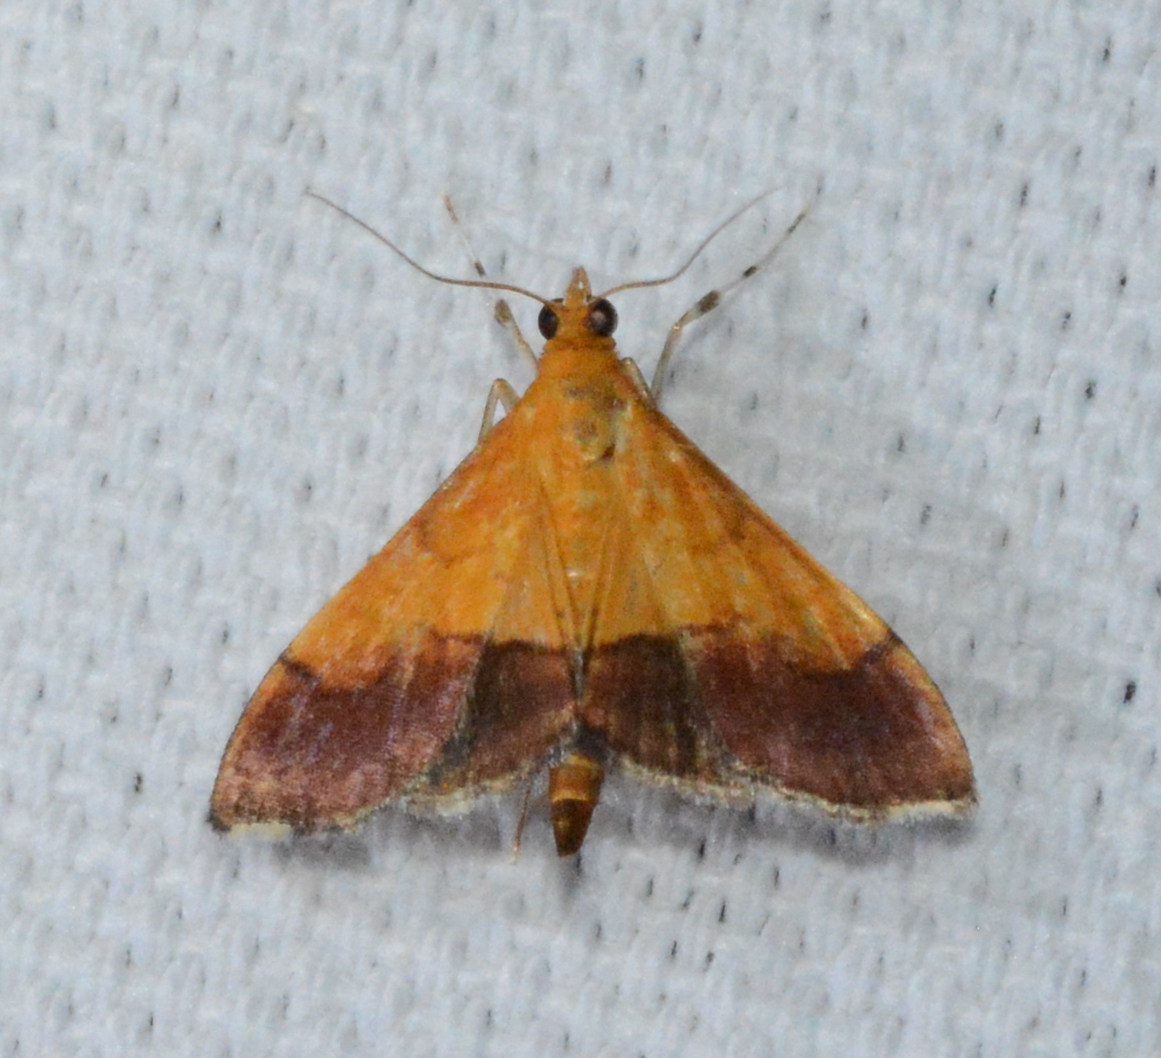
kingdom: Animalia
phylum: Arthropoda
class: Insecta
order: Lepidoptera
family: Crambidae
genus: Pyrausta
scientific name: Pyrausta bicoloralis
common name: Bicolored pyrausta moth
